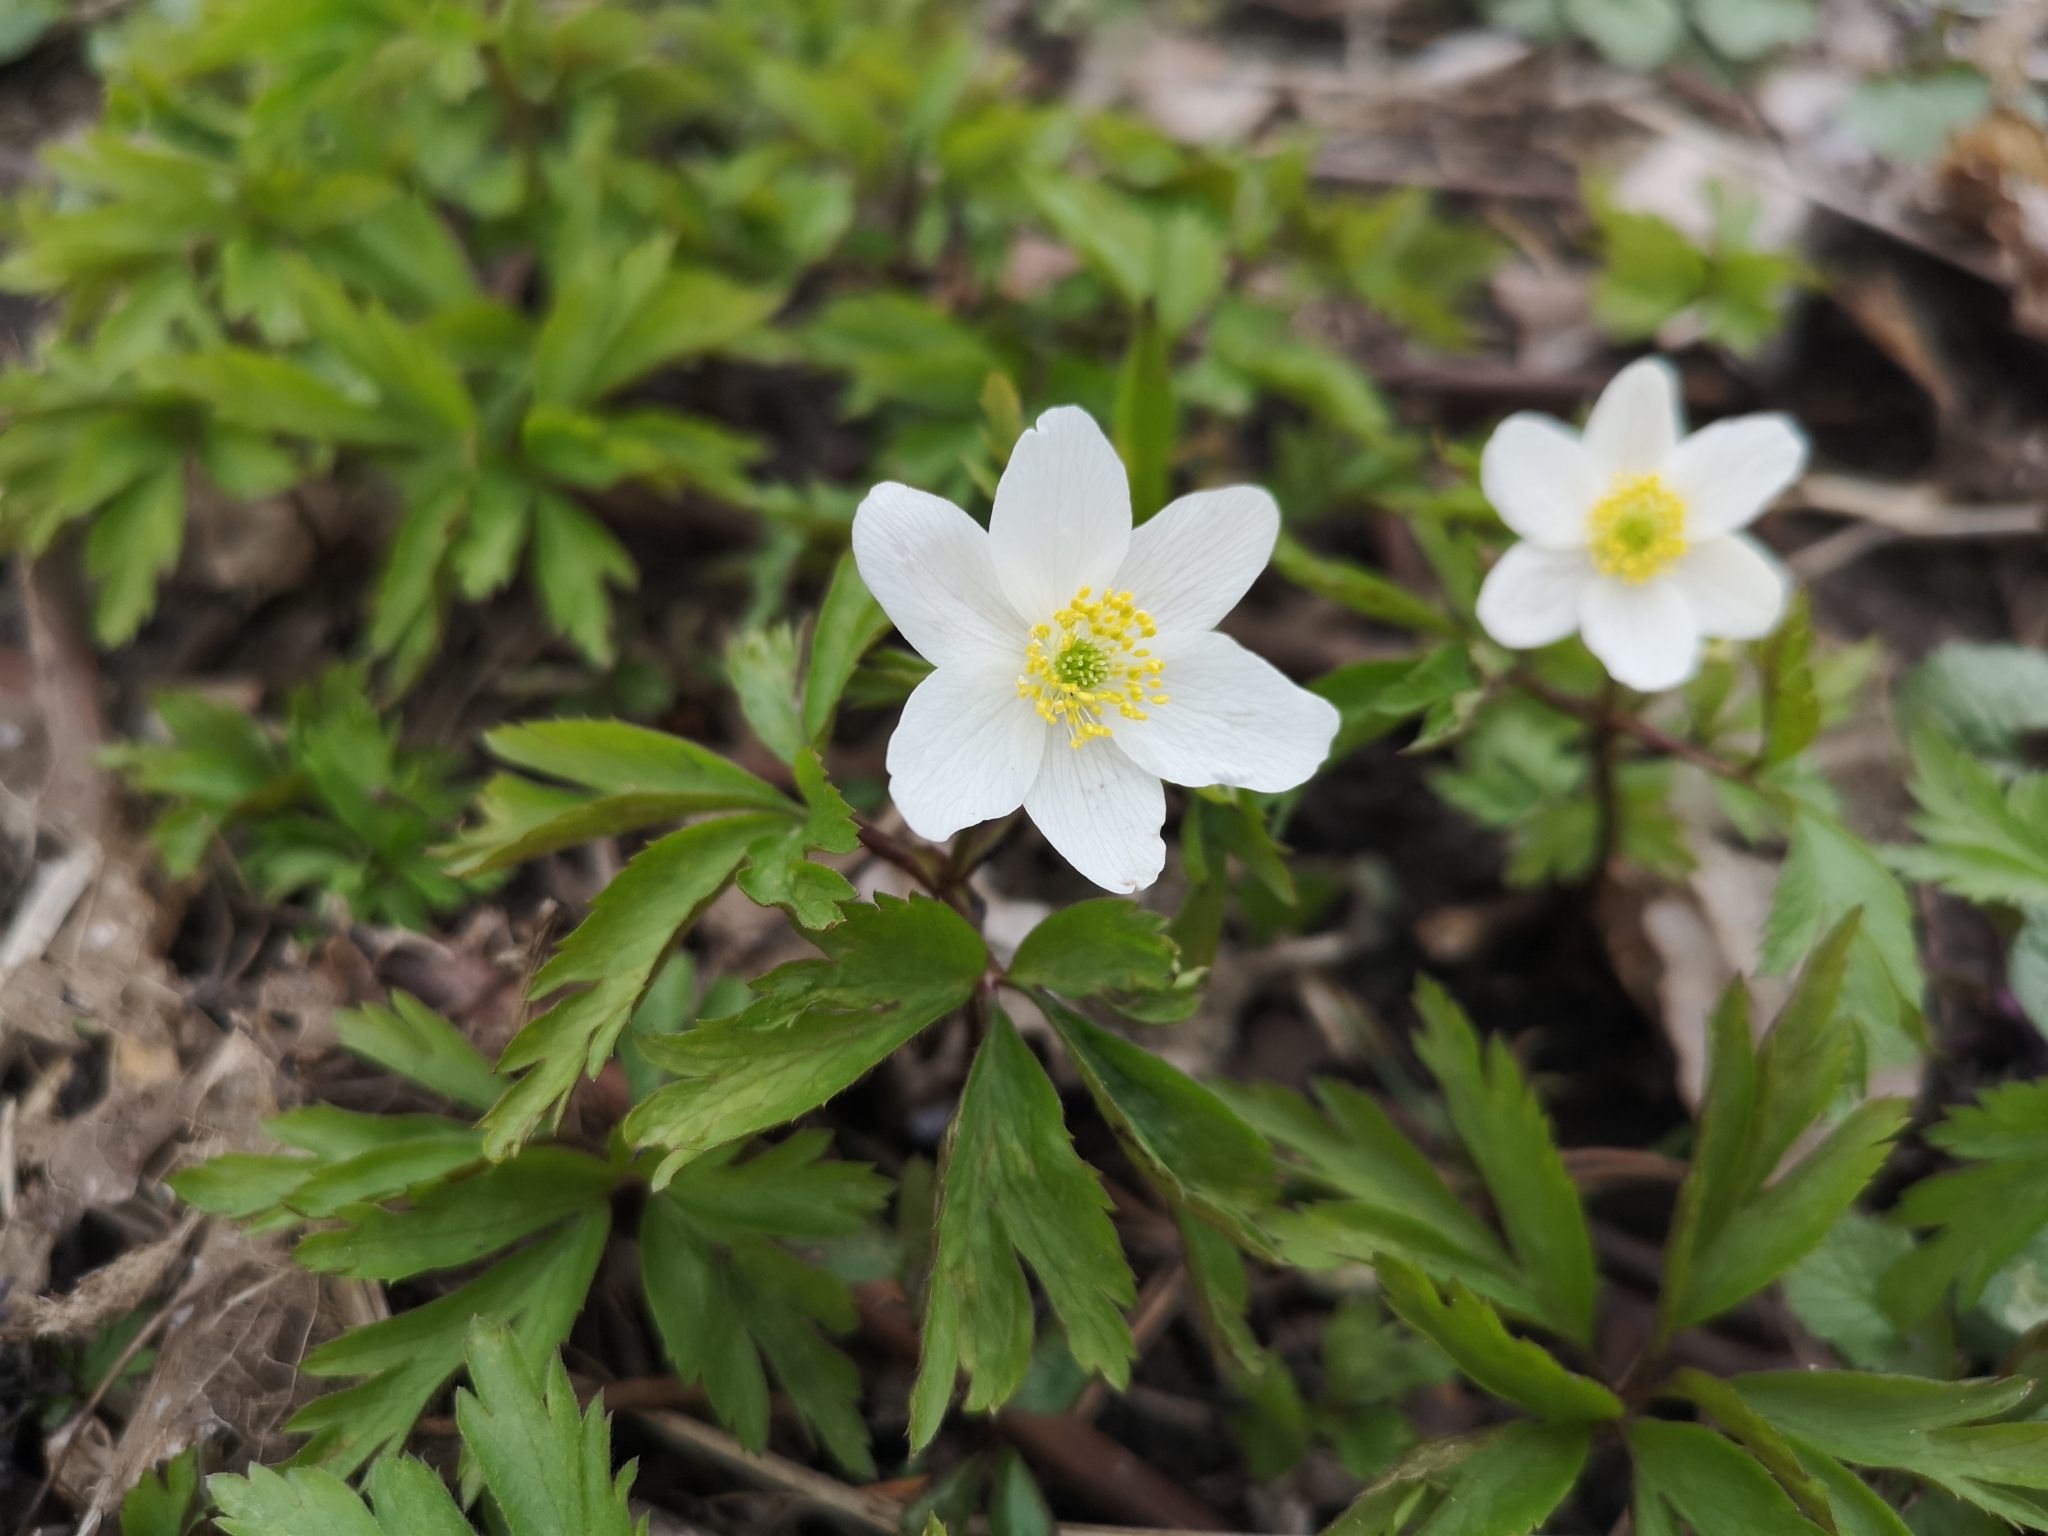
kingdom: Plantae
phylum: Tracheophyta
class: Magnoliopsida
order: Ranunculales
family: Ranunculaceae
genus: Anemone
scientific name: Anemone nemorosa
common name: Wood anemone
